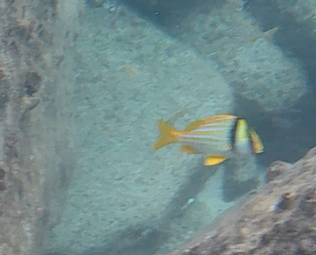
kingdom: Animalia
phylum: Chordata
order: Perciformes
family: Haemulidae
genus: Anisotremus
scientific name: Anisotremus virginicus
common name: Porkfish
